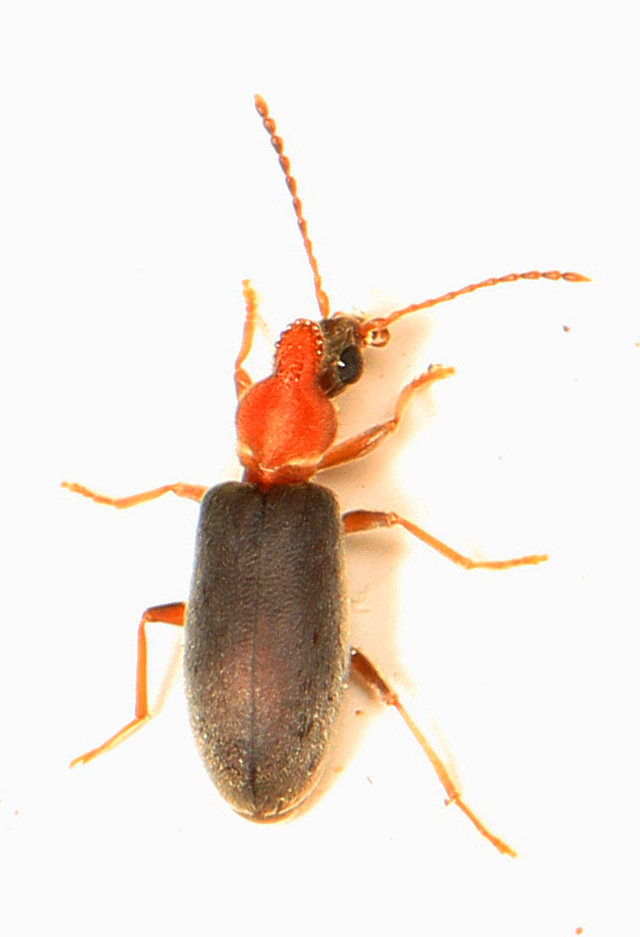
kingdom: Animalia
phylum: Arthropoda
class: Insecta
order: Coleoptera
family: Anthicidae
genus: Notoxus
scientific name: Notoxus murinipennis
